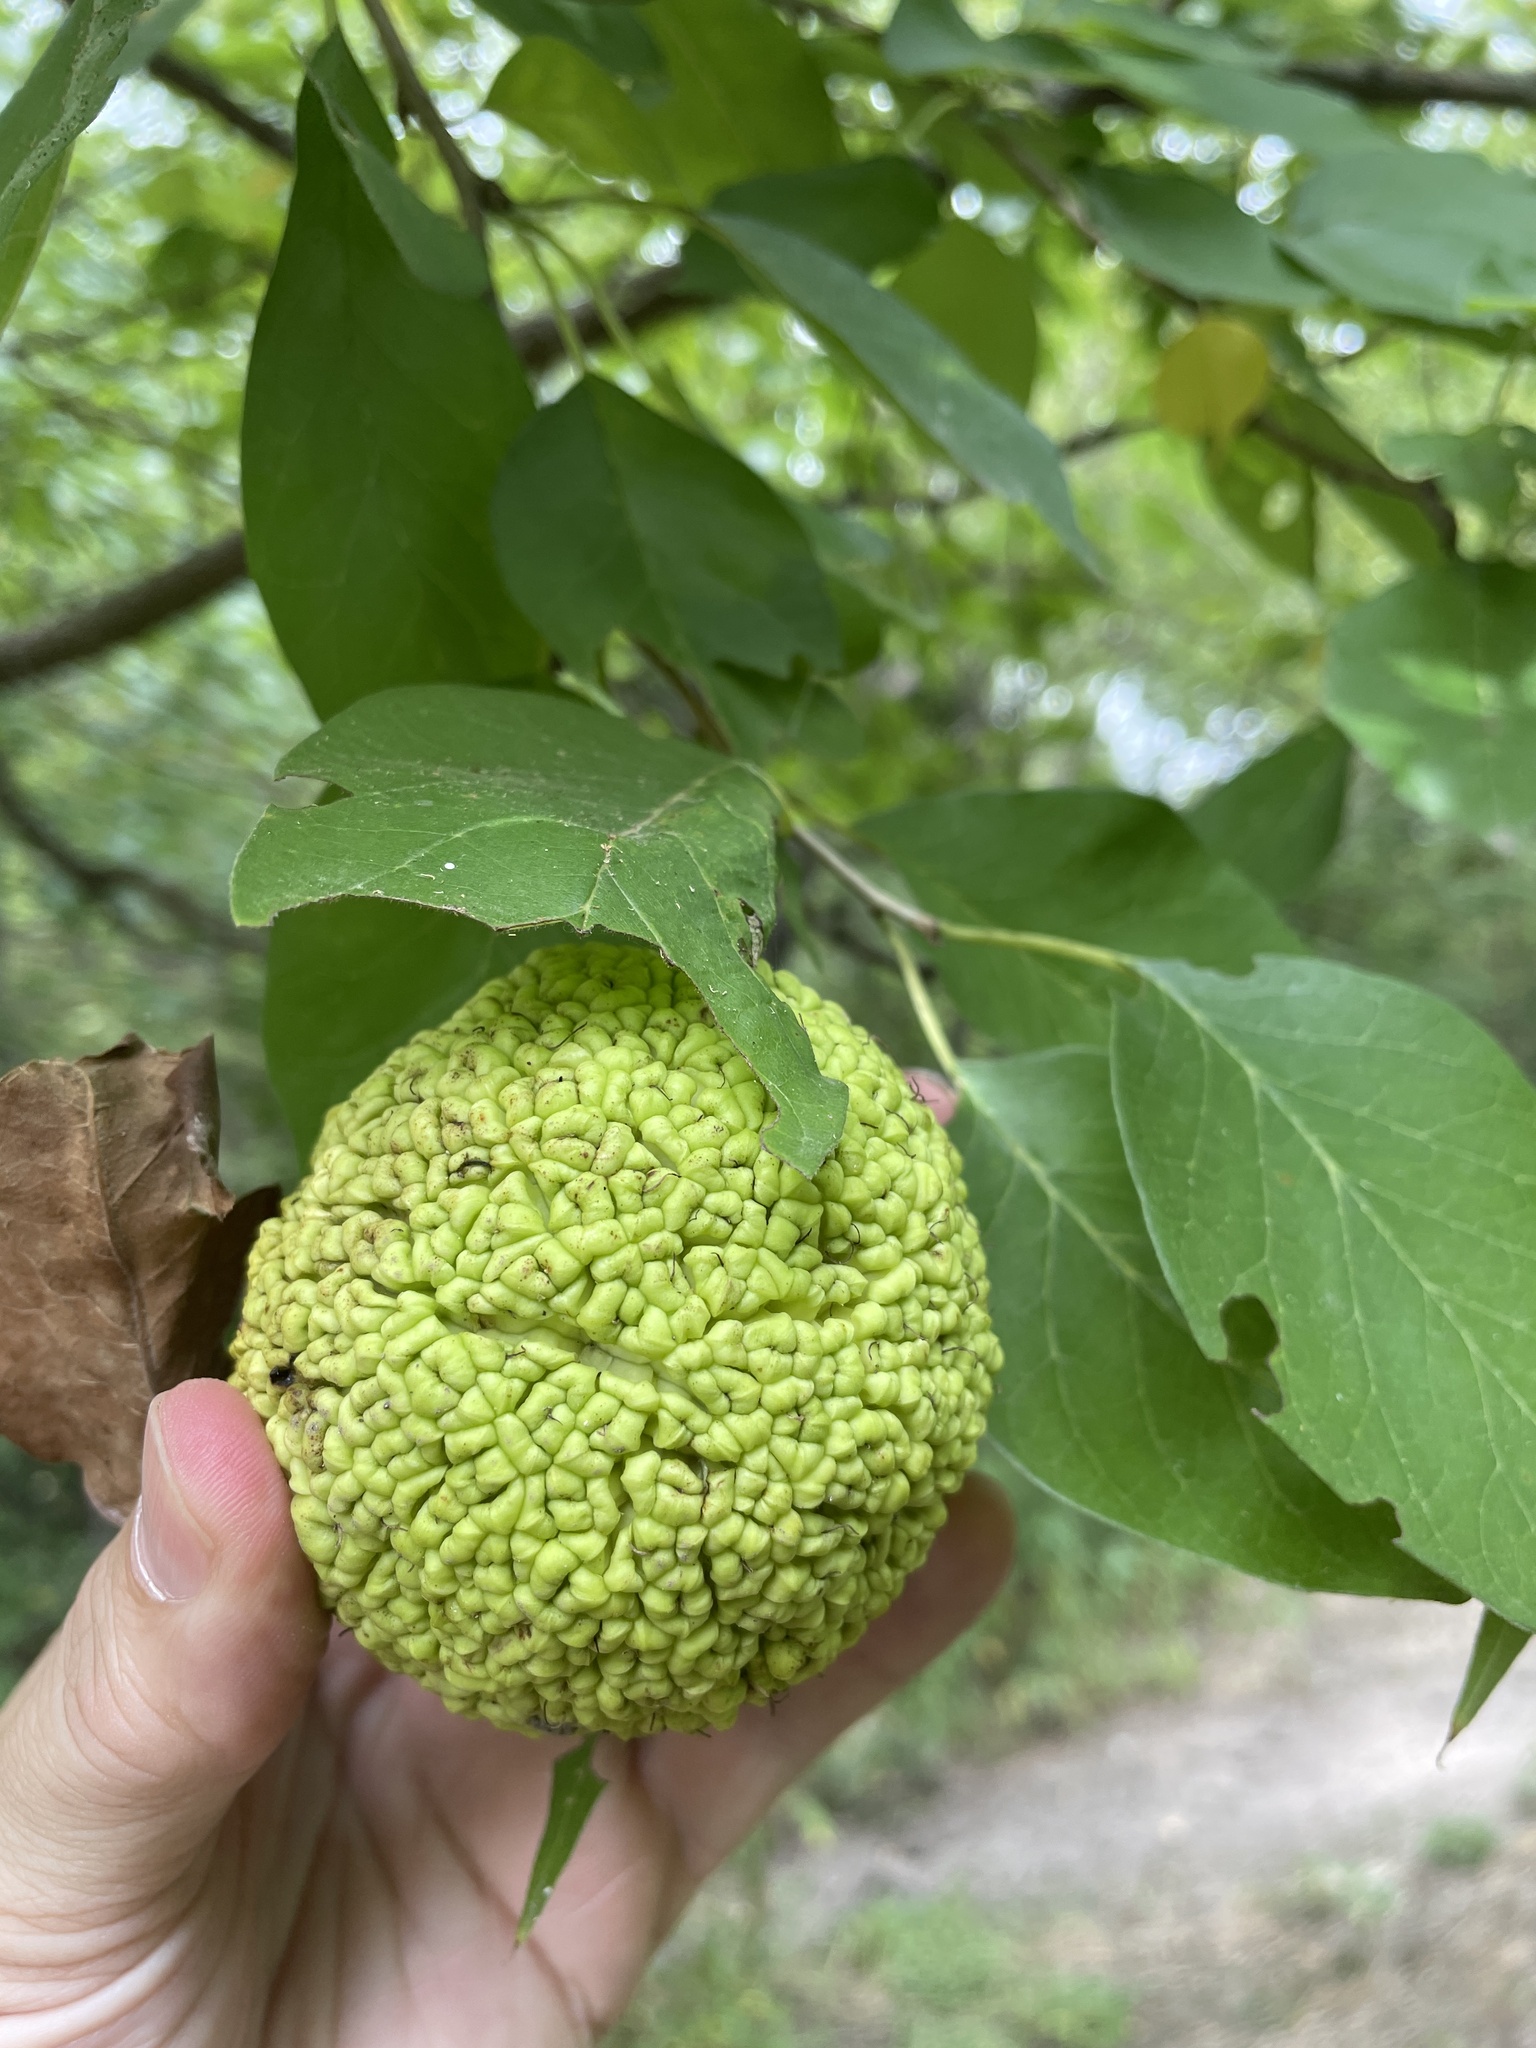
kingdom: Plantae
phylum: Tracheophyta
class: Magnoliopsida
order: Rosales
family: Moraceae
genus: Maclura
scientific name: Maclura pomifera
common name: Osage-orange
